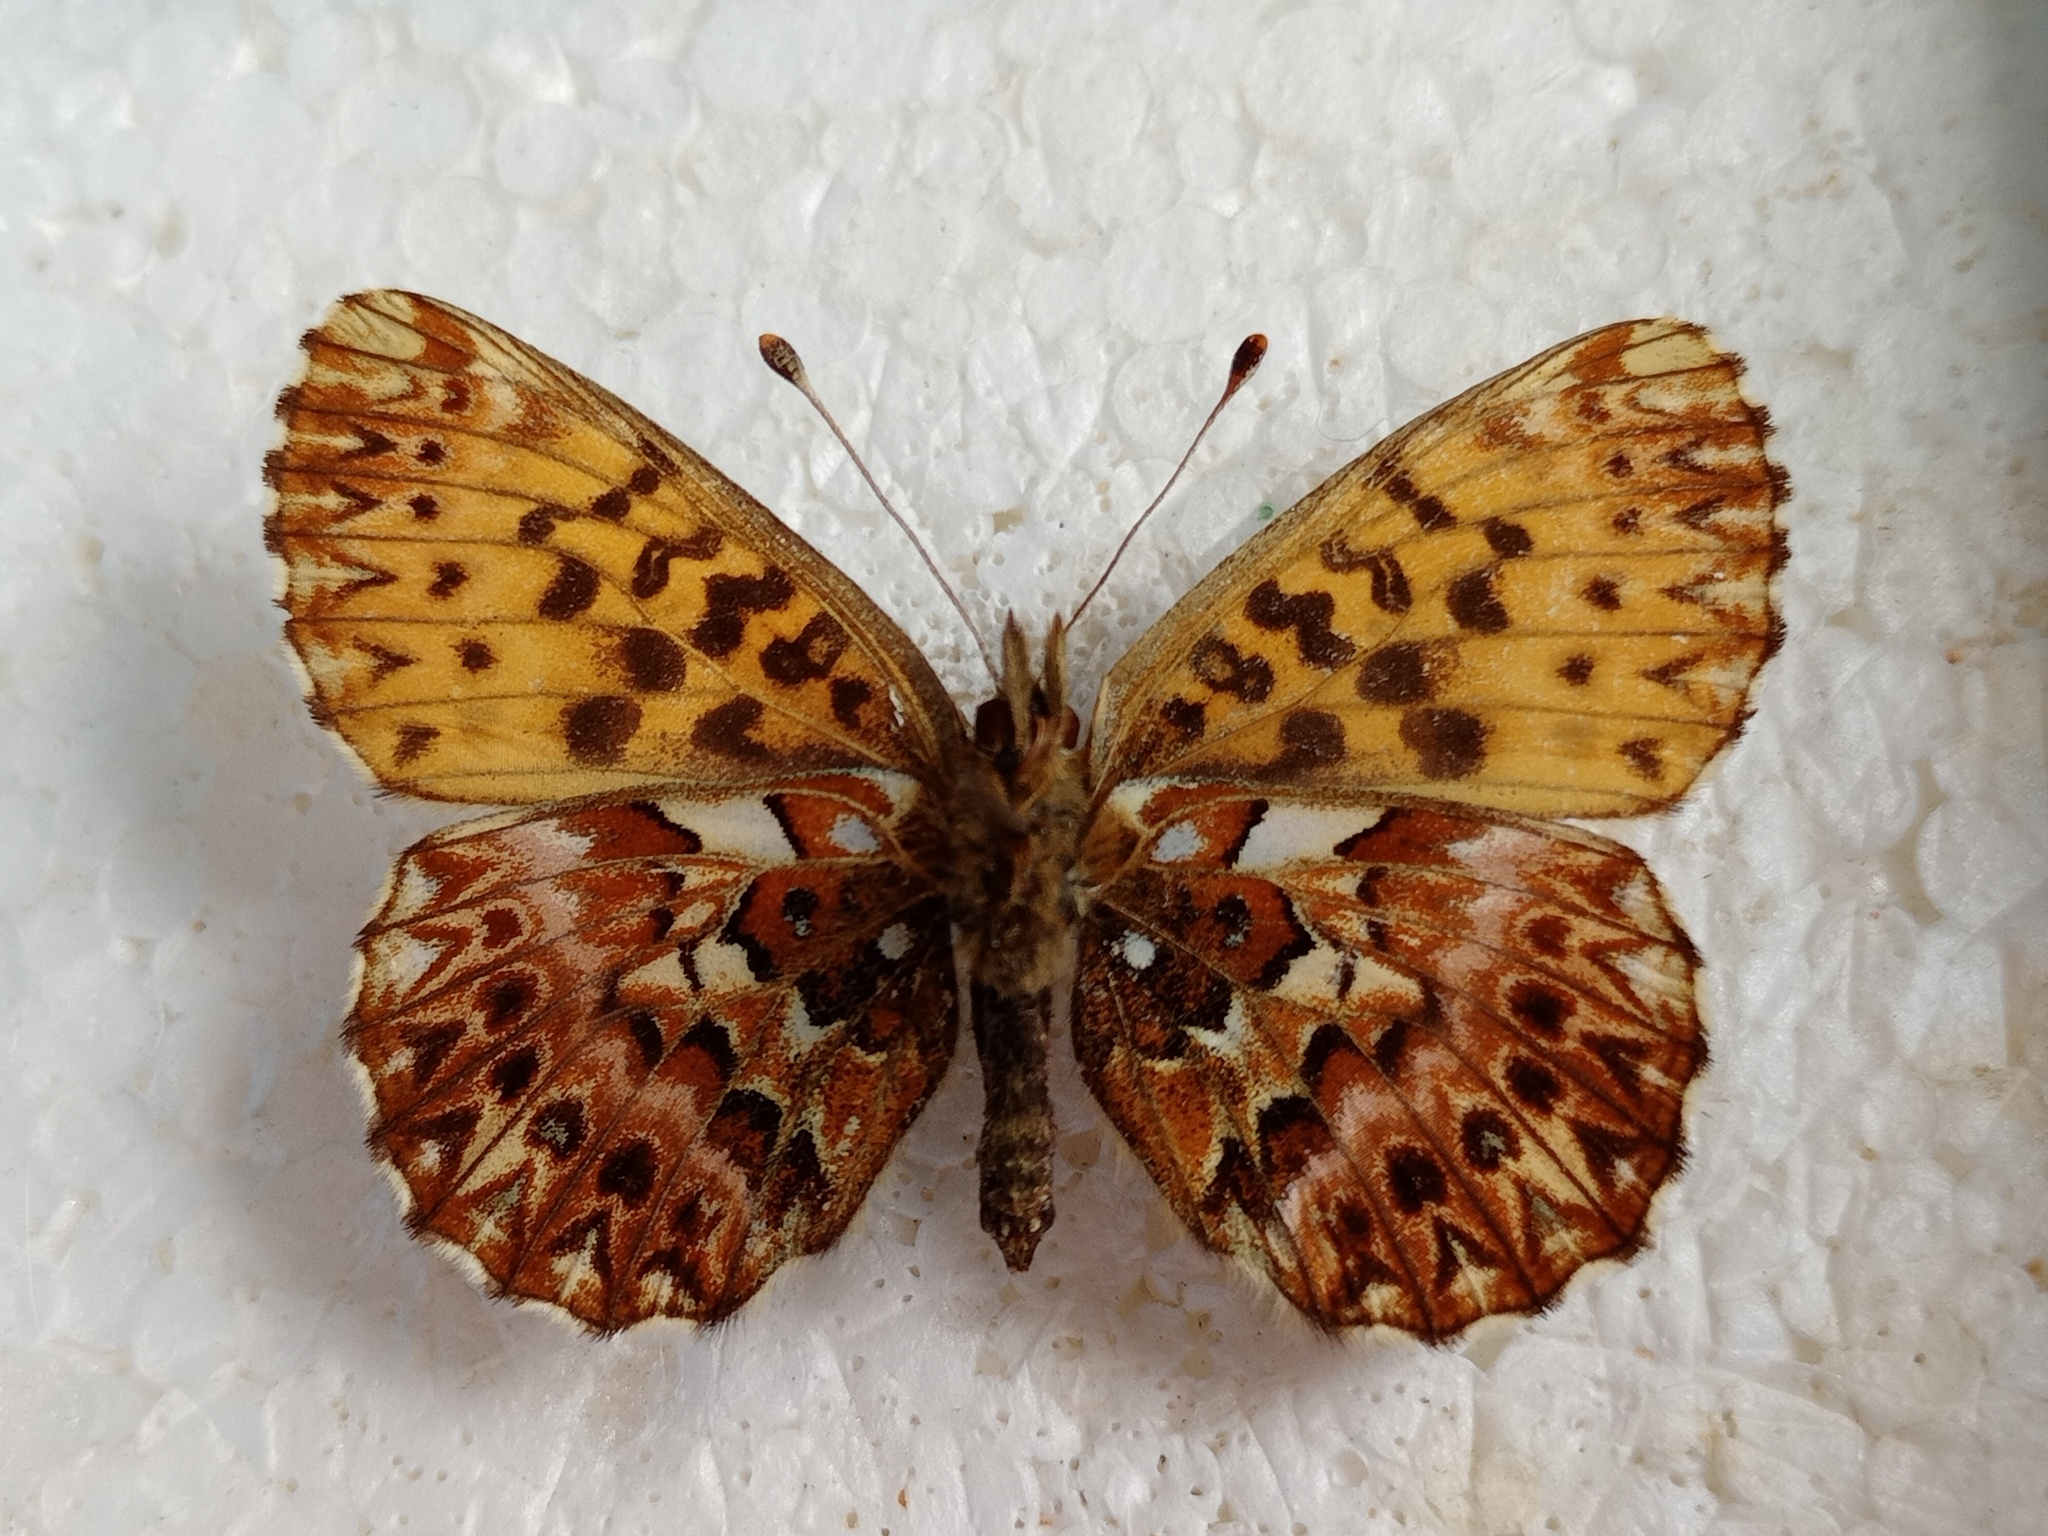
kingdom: Animalia
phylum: Arthropoda
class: Insecta
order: Lepidoptera
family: Nymphalidae
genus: Boloria
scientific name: Boloria titania
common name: Titania's fritillary
